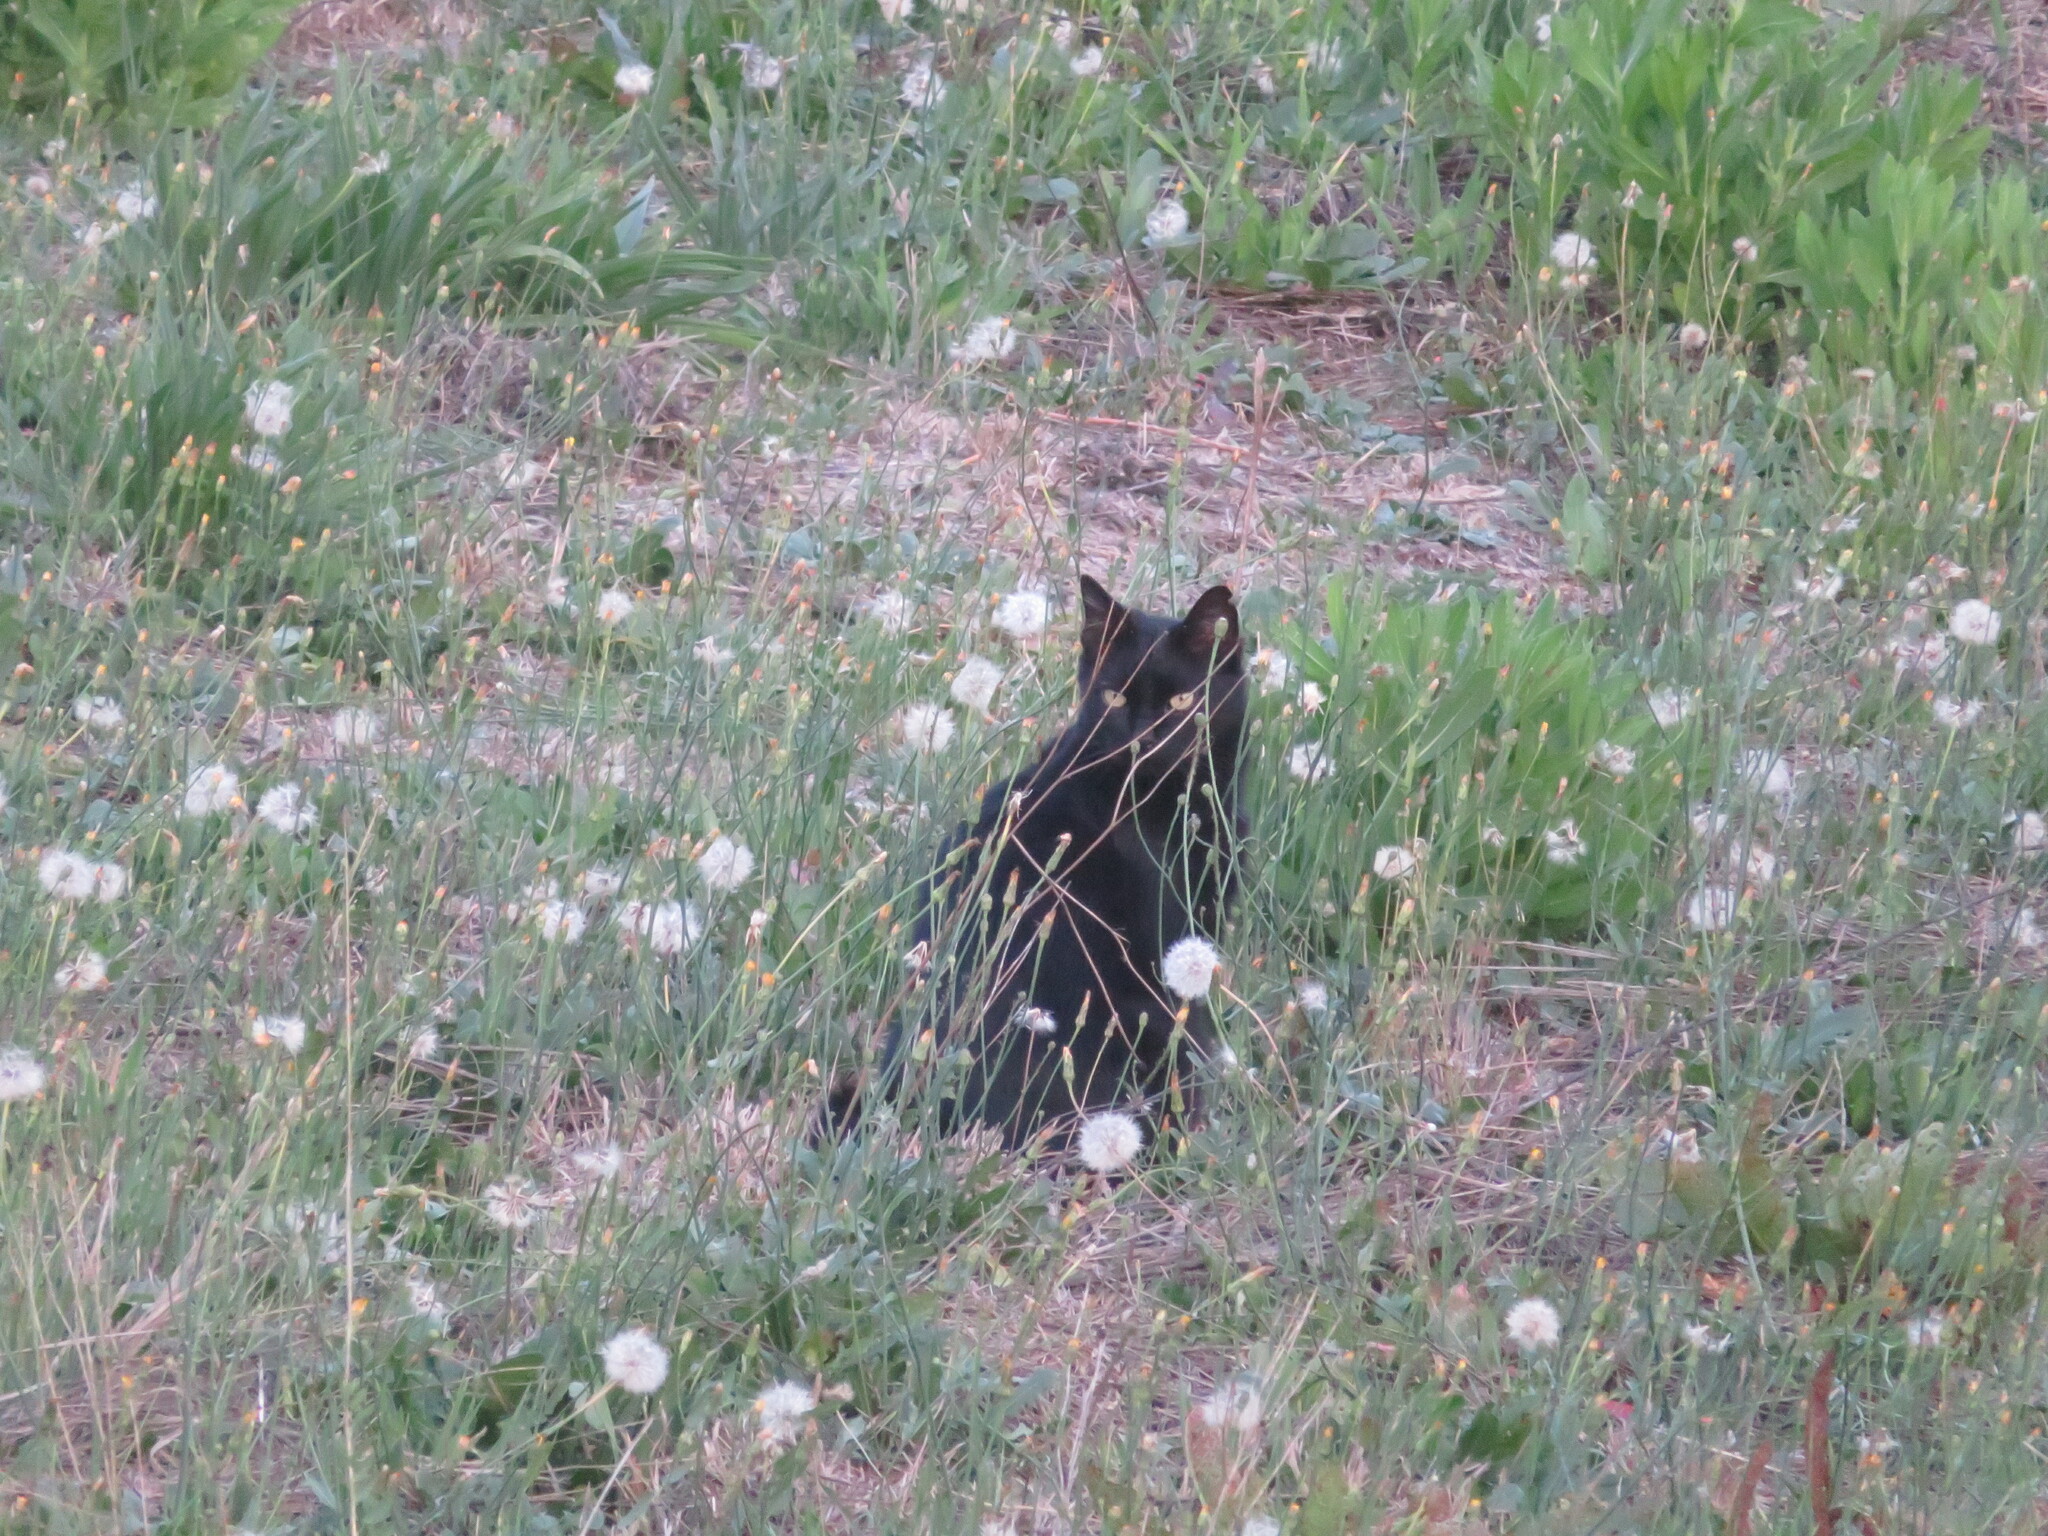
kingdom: Animalia
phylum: Chordata
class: Mammalia
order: Carnivora
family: Felidae
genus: Felis
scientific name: Felis catus
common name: Domestic cat
